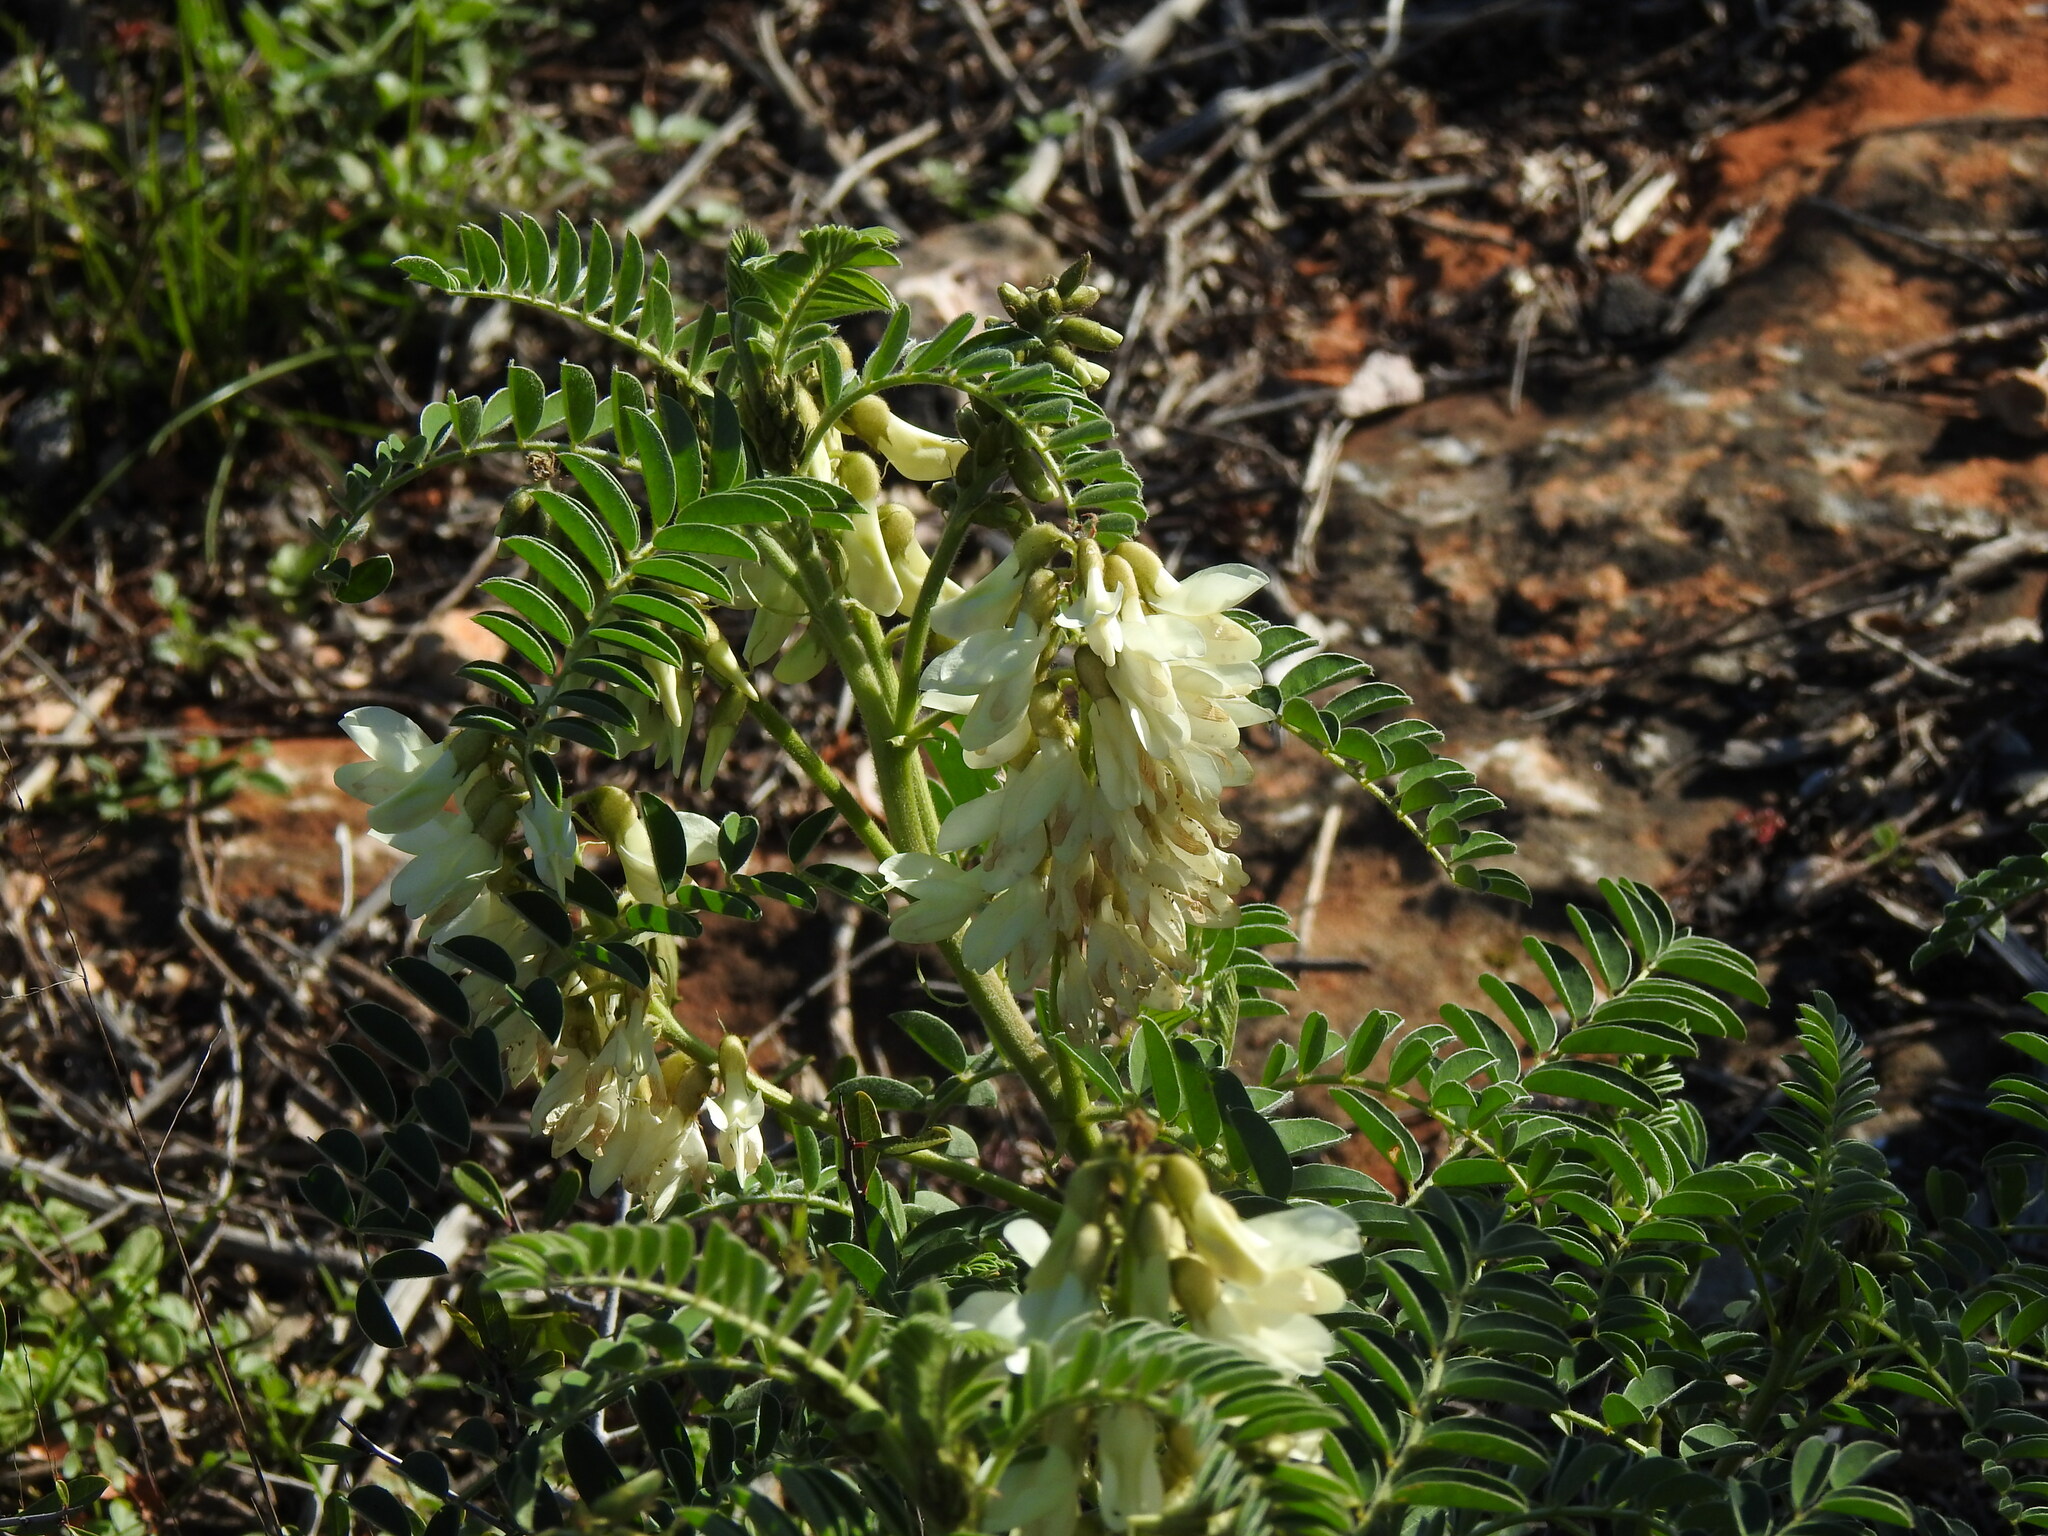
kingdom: Plantae
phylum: Tracheophyta
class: Magnoliopsida
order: Fabales
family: Fabaceae
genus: Erophaca
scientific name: Erophaca baetica
